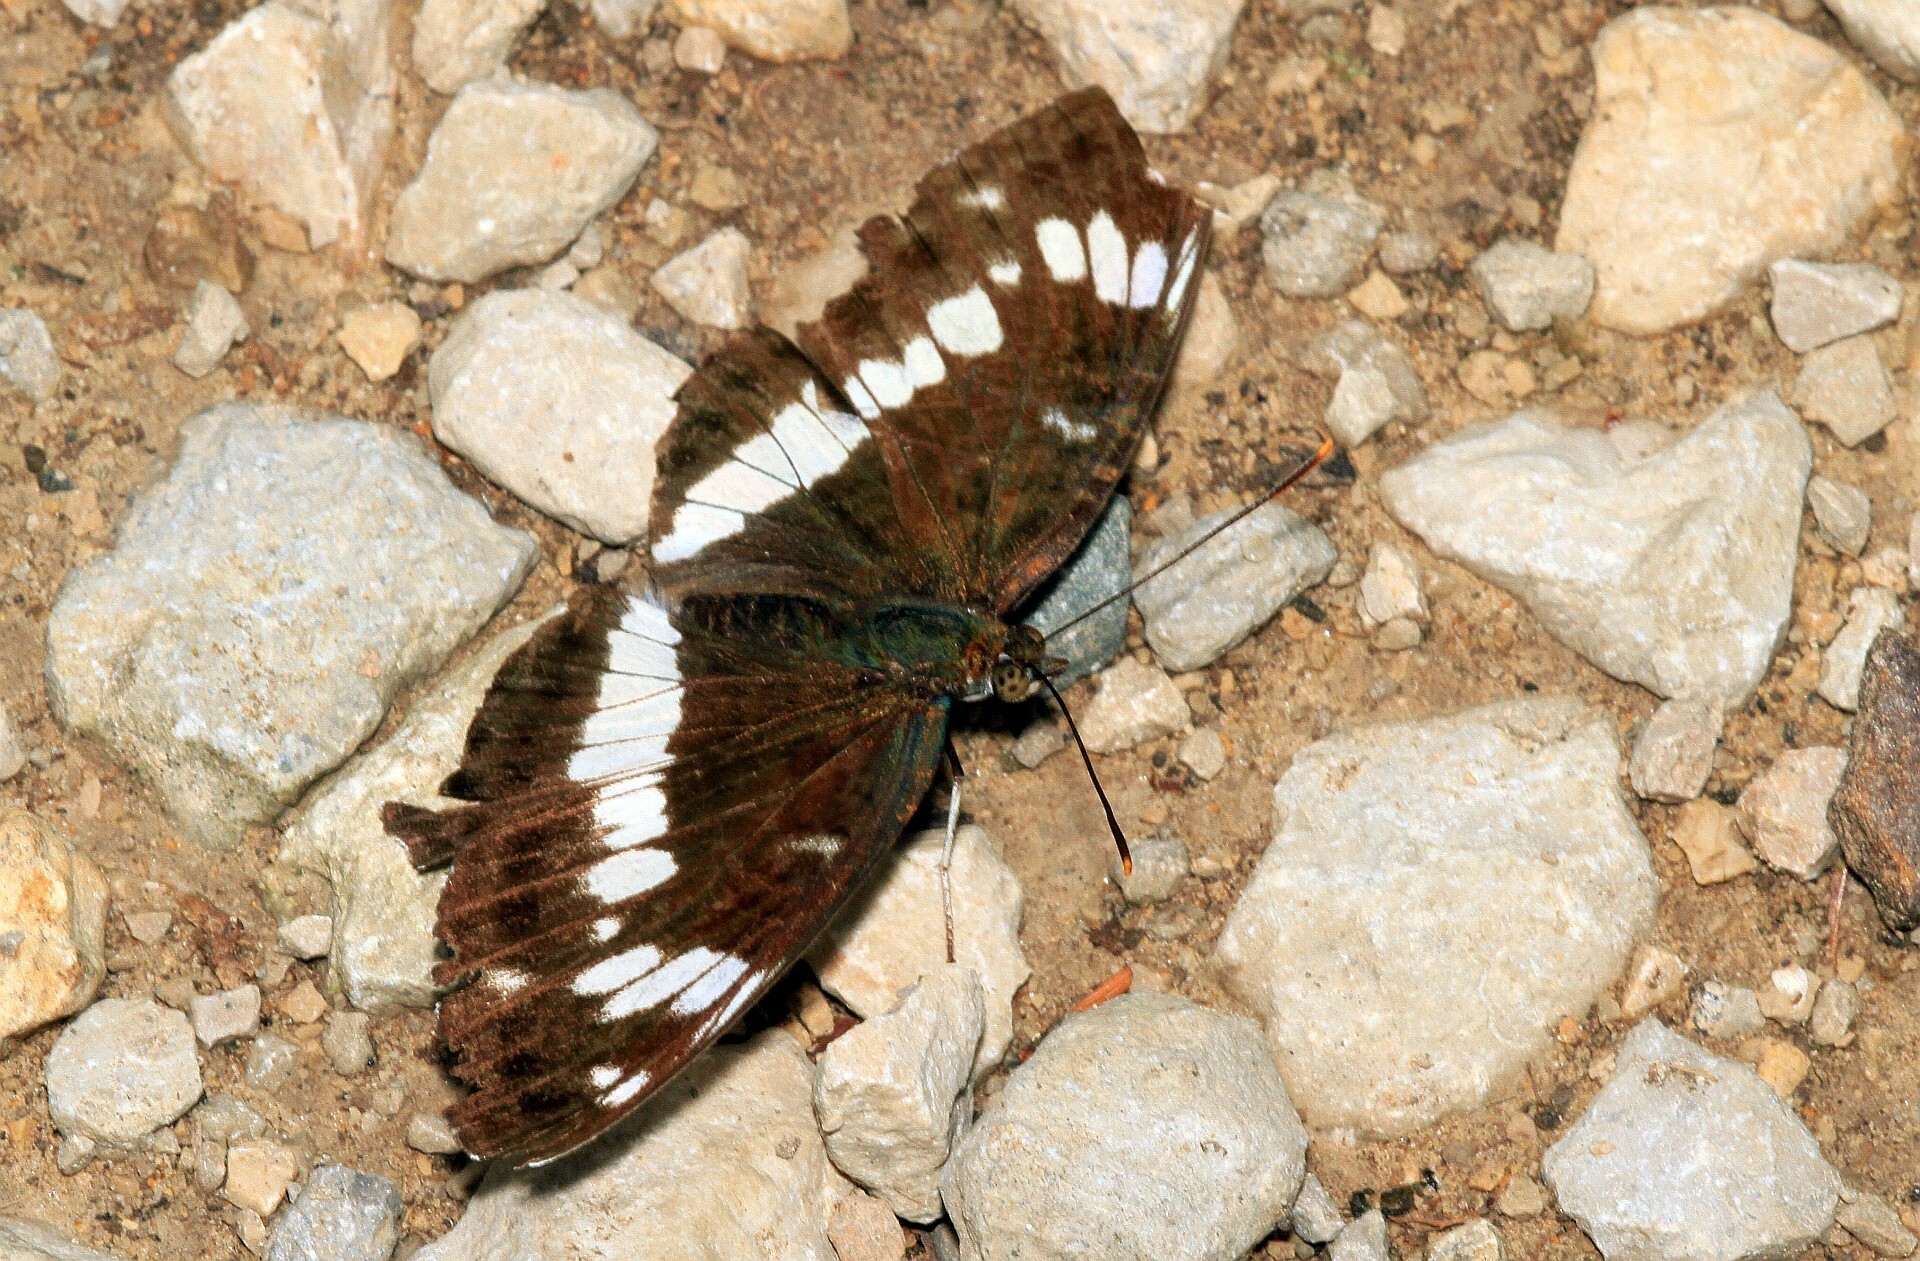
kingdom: Animalia
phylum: Arthropoda
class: Insecta
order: Lepidoptera
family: Nymphalidae
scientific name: Nymphalidae
